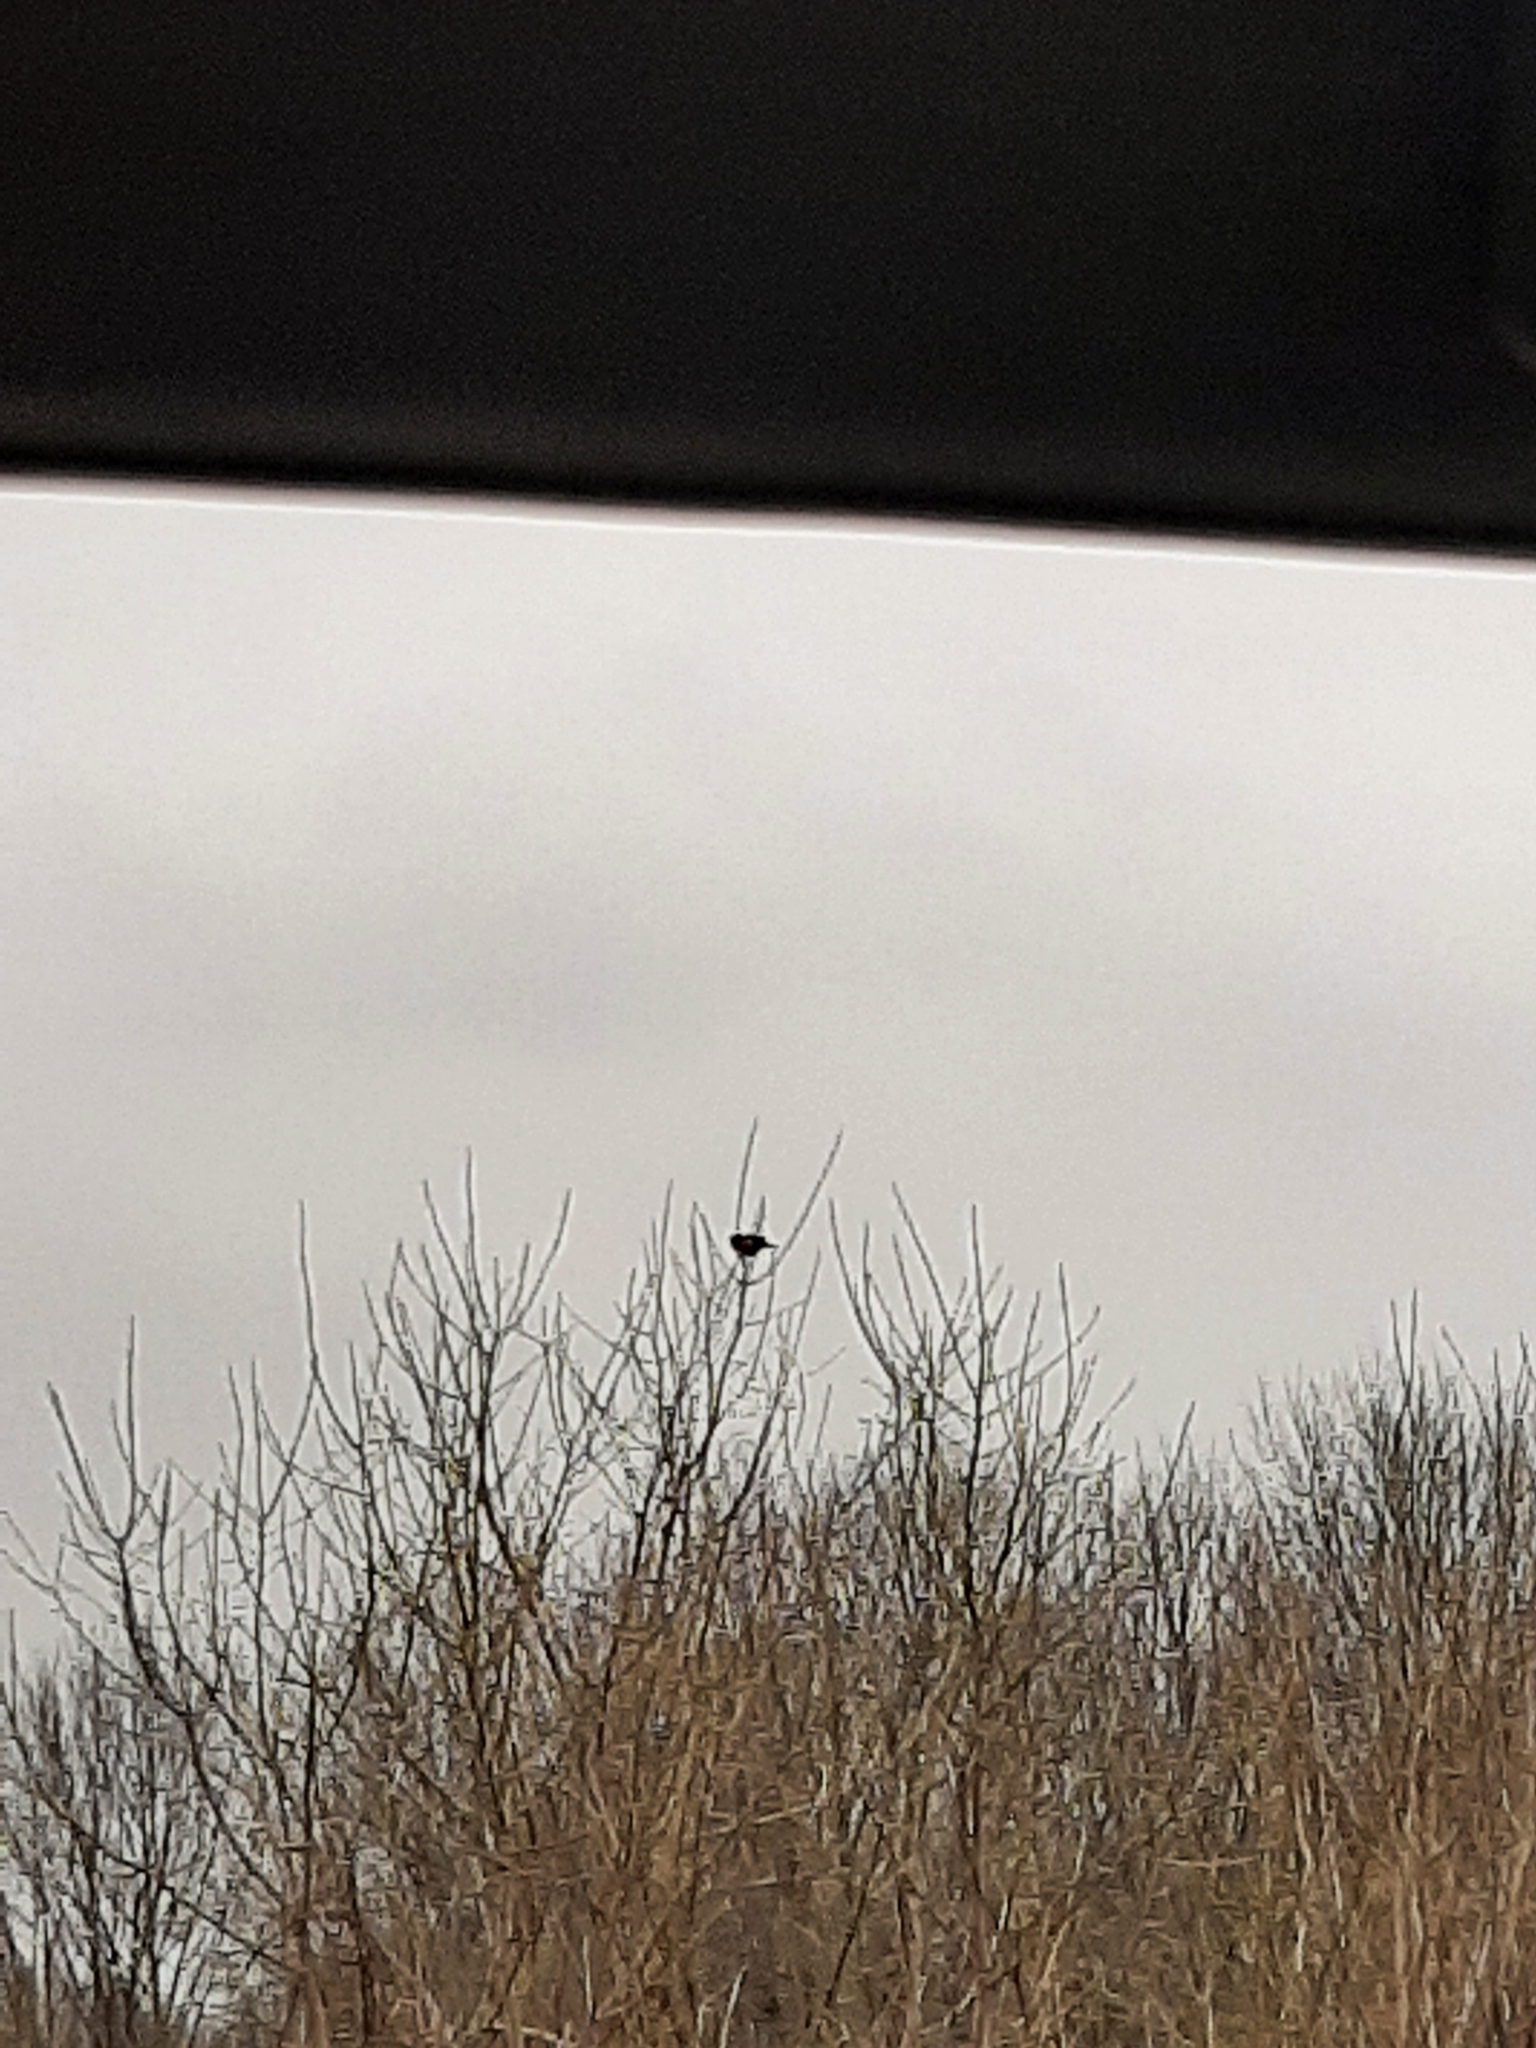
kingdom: Animalia
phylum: Chordata
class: Aves
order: Passeriformes
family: Icteridae
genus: Agelaius
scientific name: Agelaius phoeniceus
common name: Red-winged blackbird
